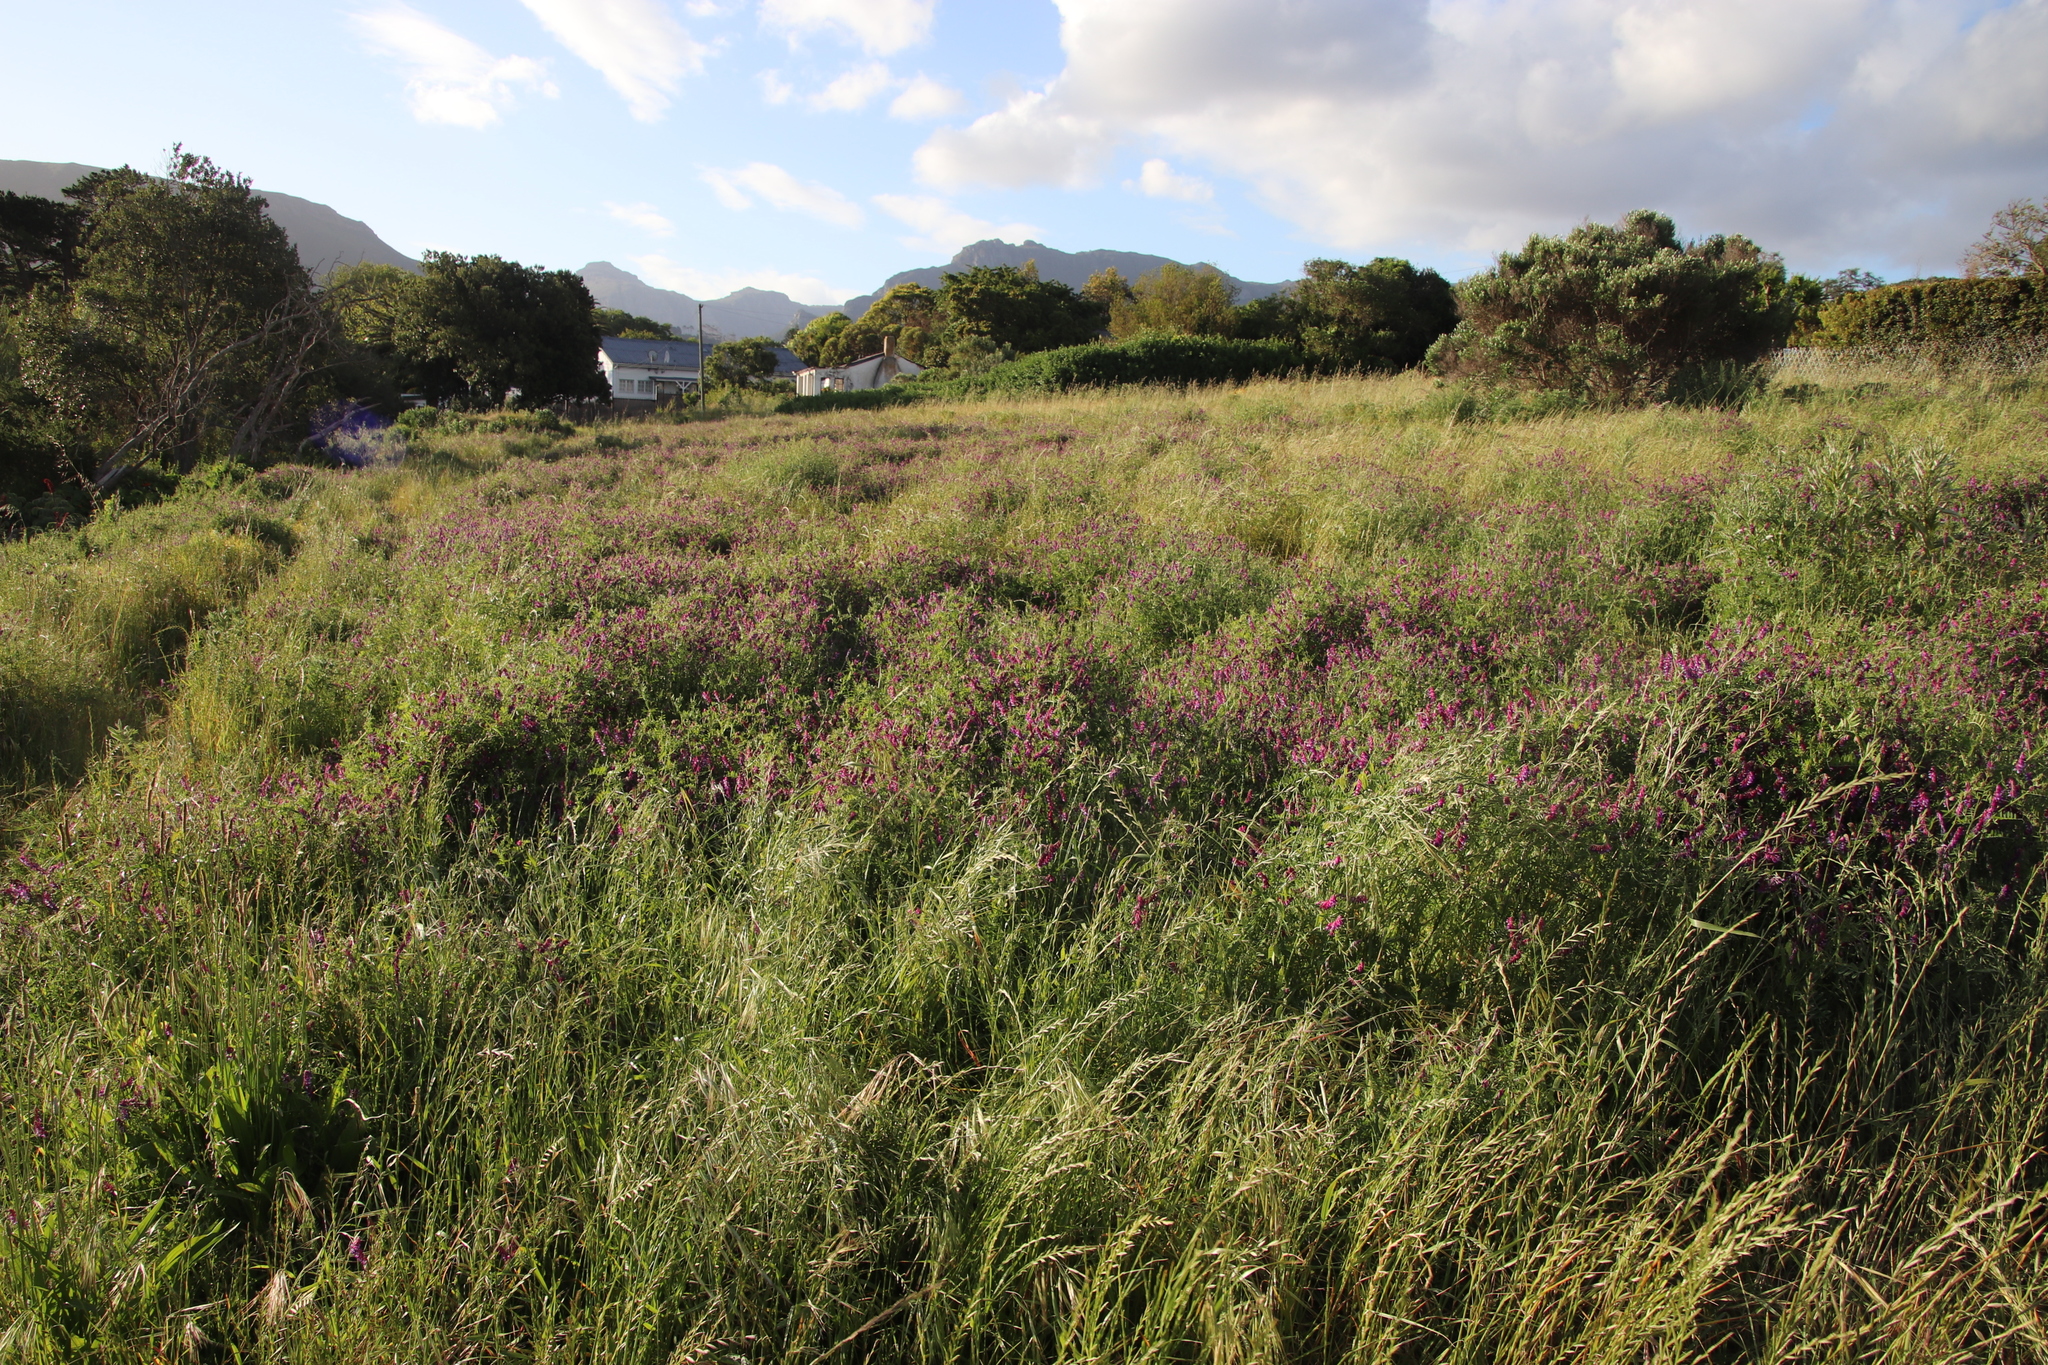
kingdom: Plantae
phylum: Tracheophyta
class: Magnoliopsida
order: Fabales
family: Fabaceae
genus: Vicia
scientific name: Vicia eriocarpa
